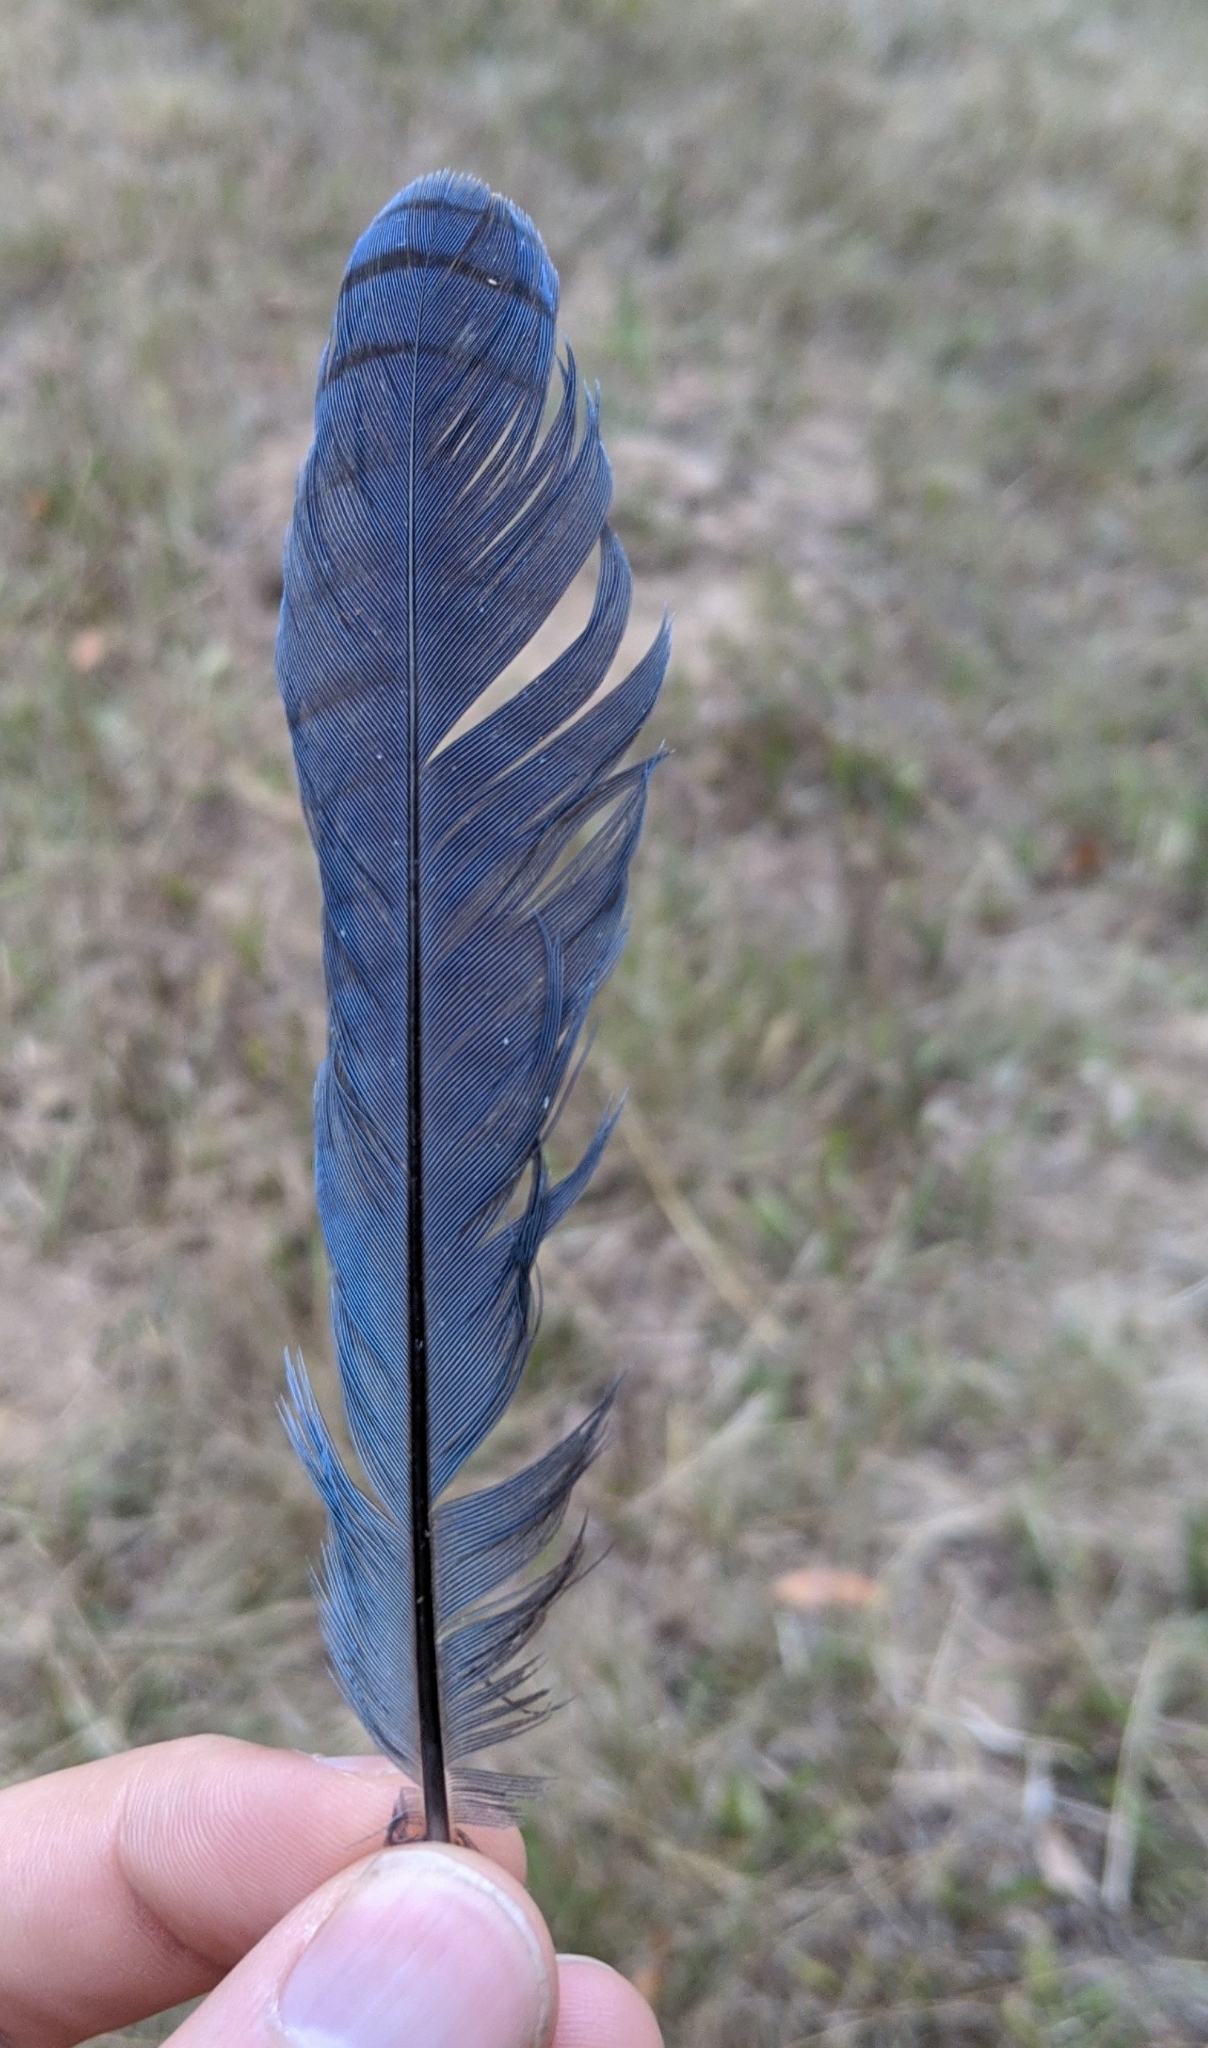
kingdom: Animalia
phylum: Chordata
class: Aves
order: Passeriformes
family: Corvidae
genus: Cyanocitta
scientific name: Cyanocitta stelleri
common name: Steller's jay
